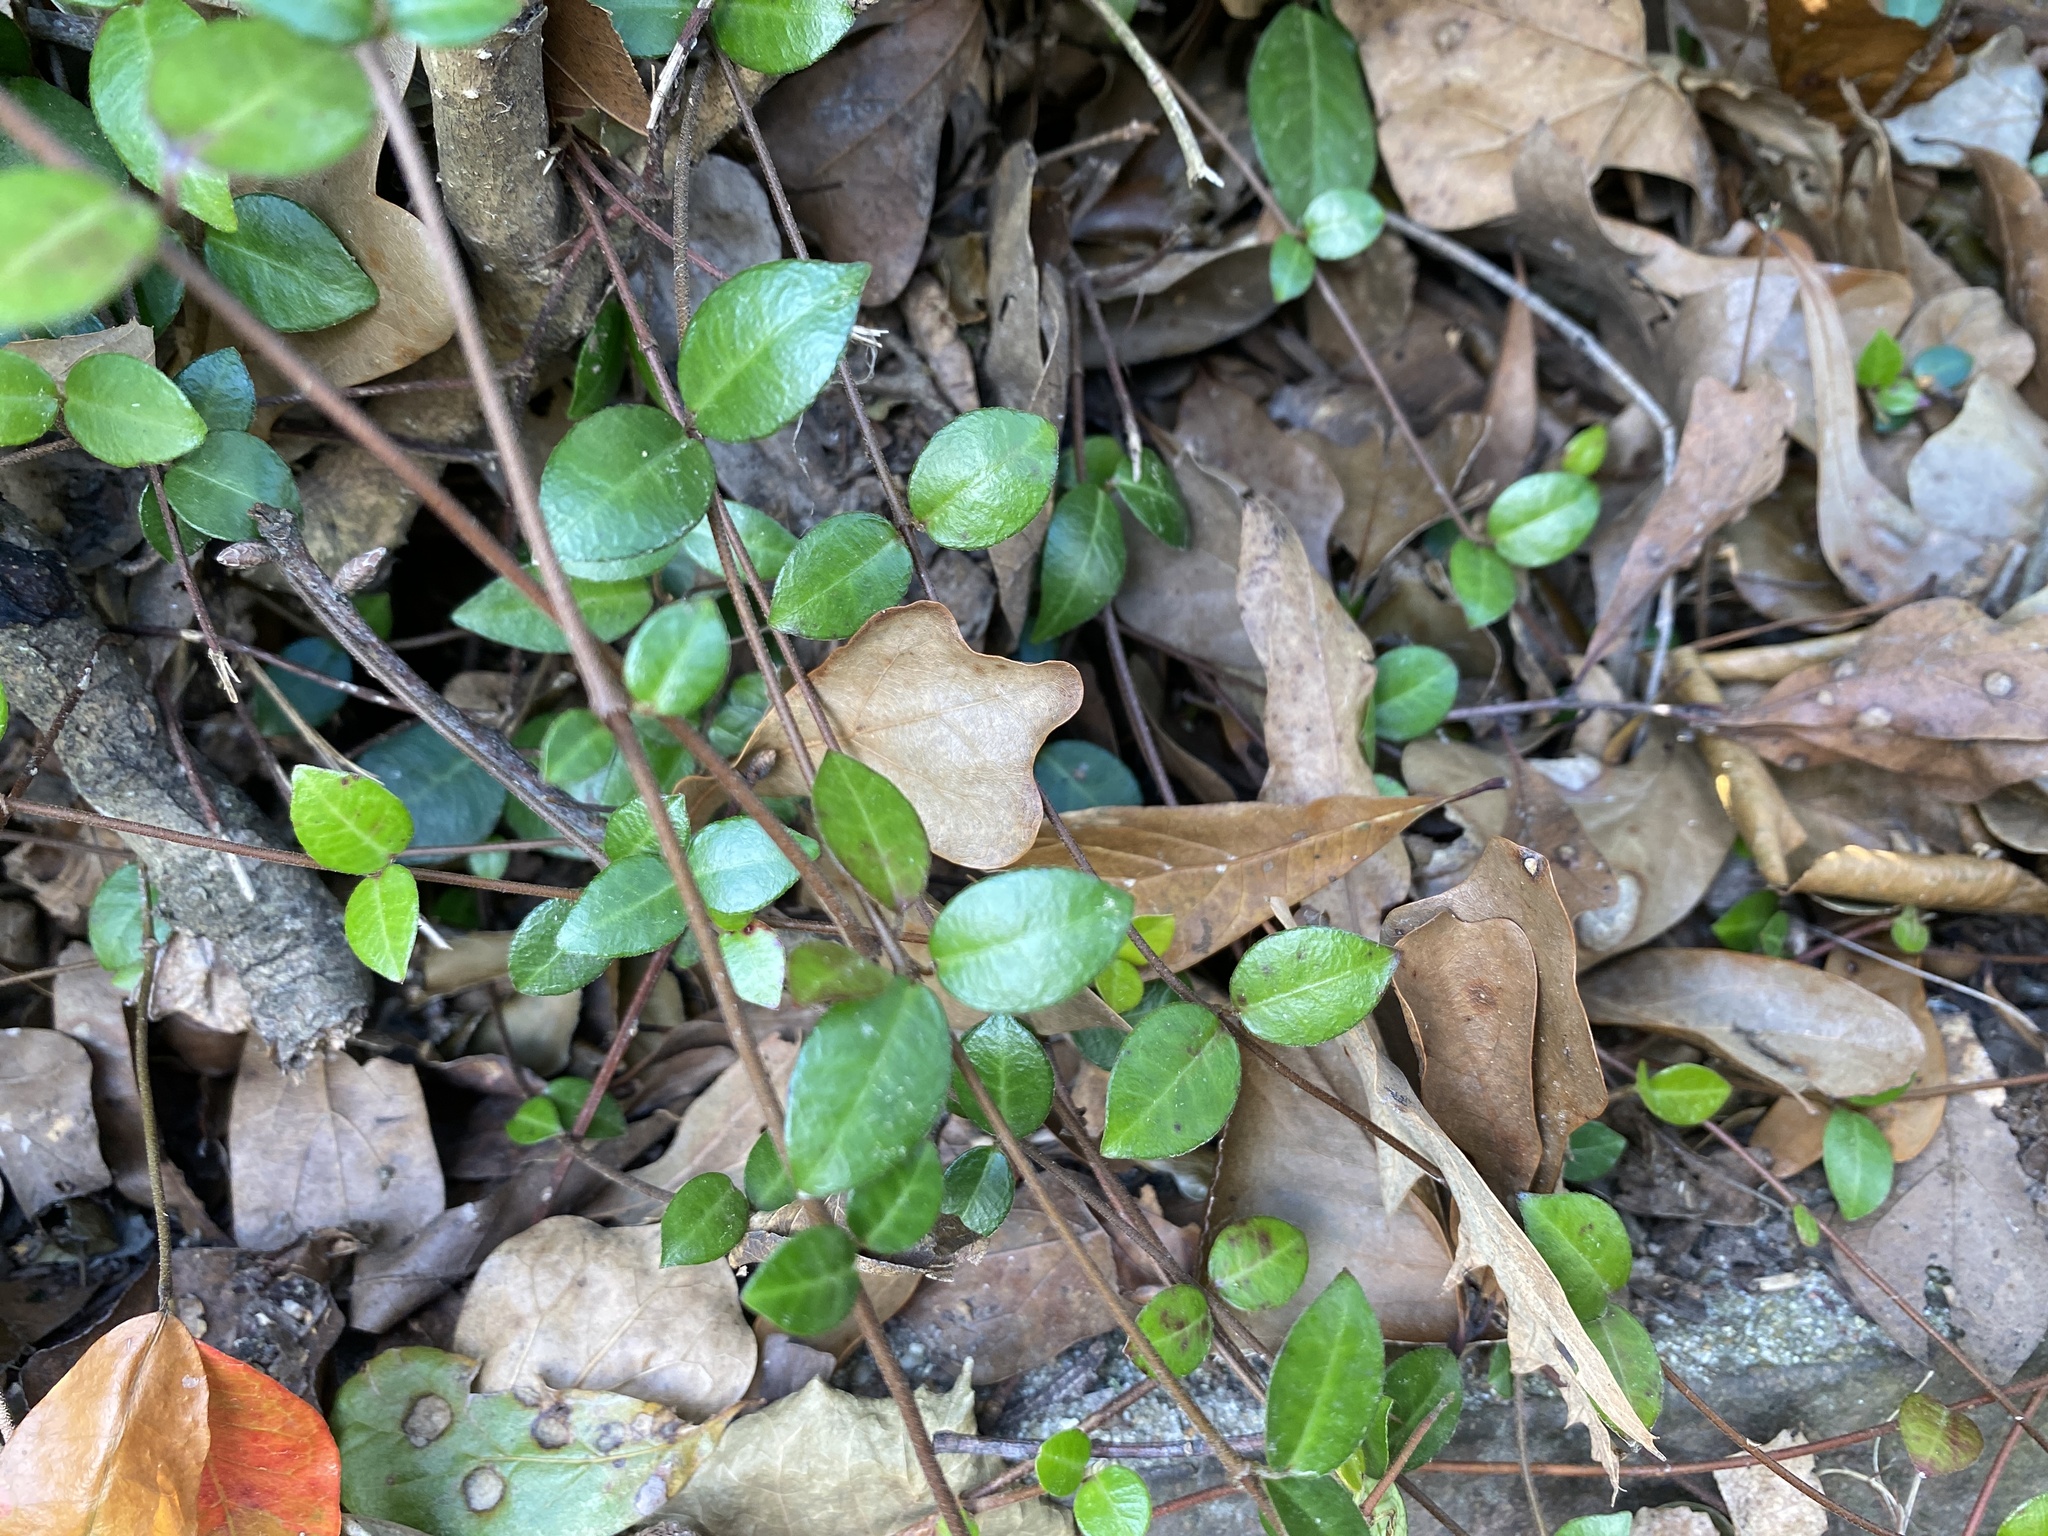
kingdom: Plantae
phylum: Tracheophyta
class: Magnoliopsida
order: Gentianales
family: Apocynaceae
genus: Trachelospermum
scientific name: Trachelospermum jasminoides
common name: Confederate jasmine
